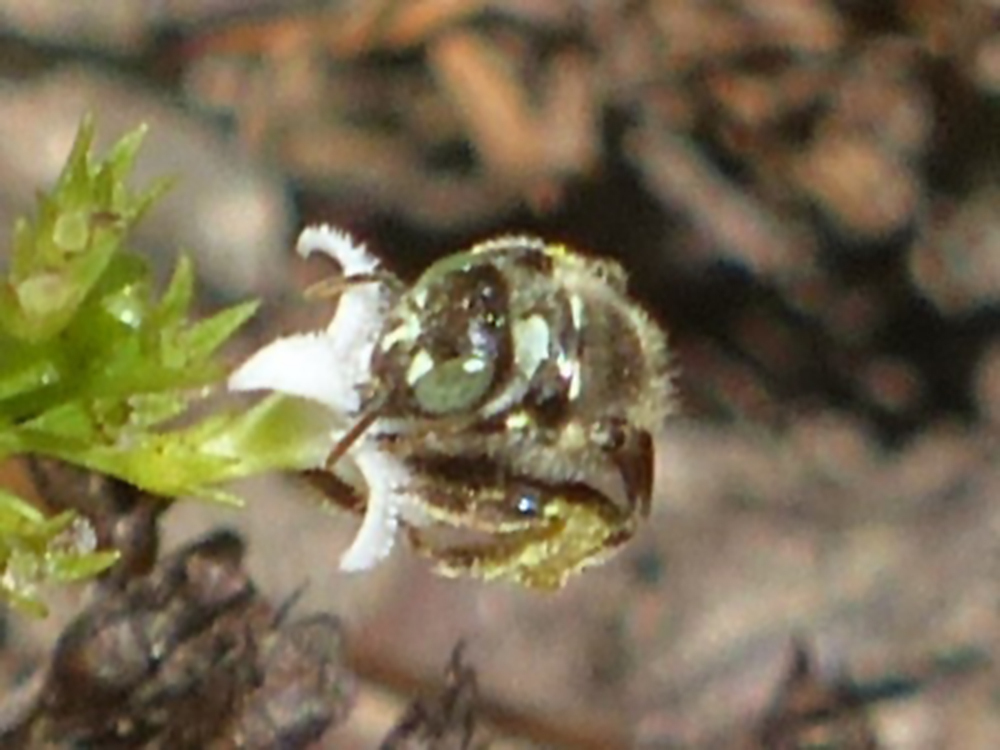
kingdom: Animalia
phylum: Arthropoda
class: Insecta
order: Hymenoptera
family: Andrenidae
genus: Calliopsis
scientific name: Calliopsis andreniformis
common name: Eastern calliopsis bee
